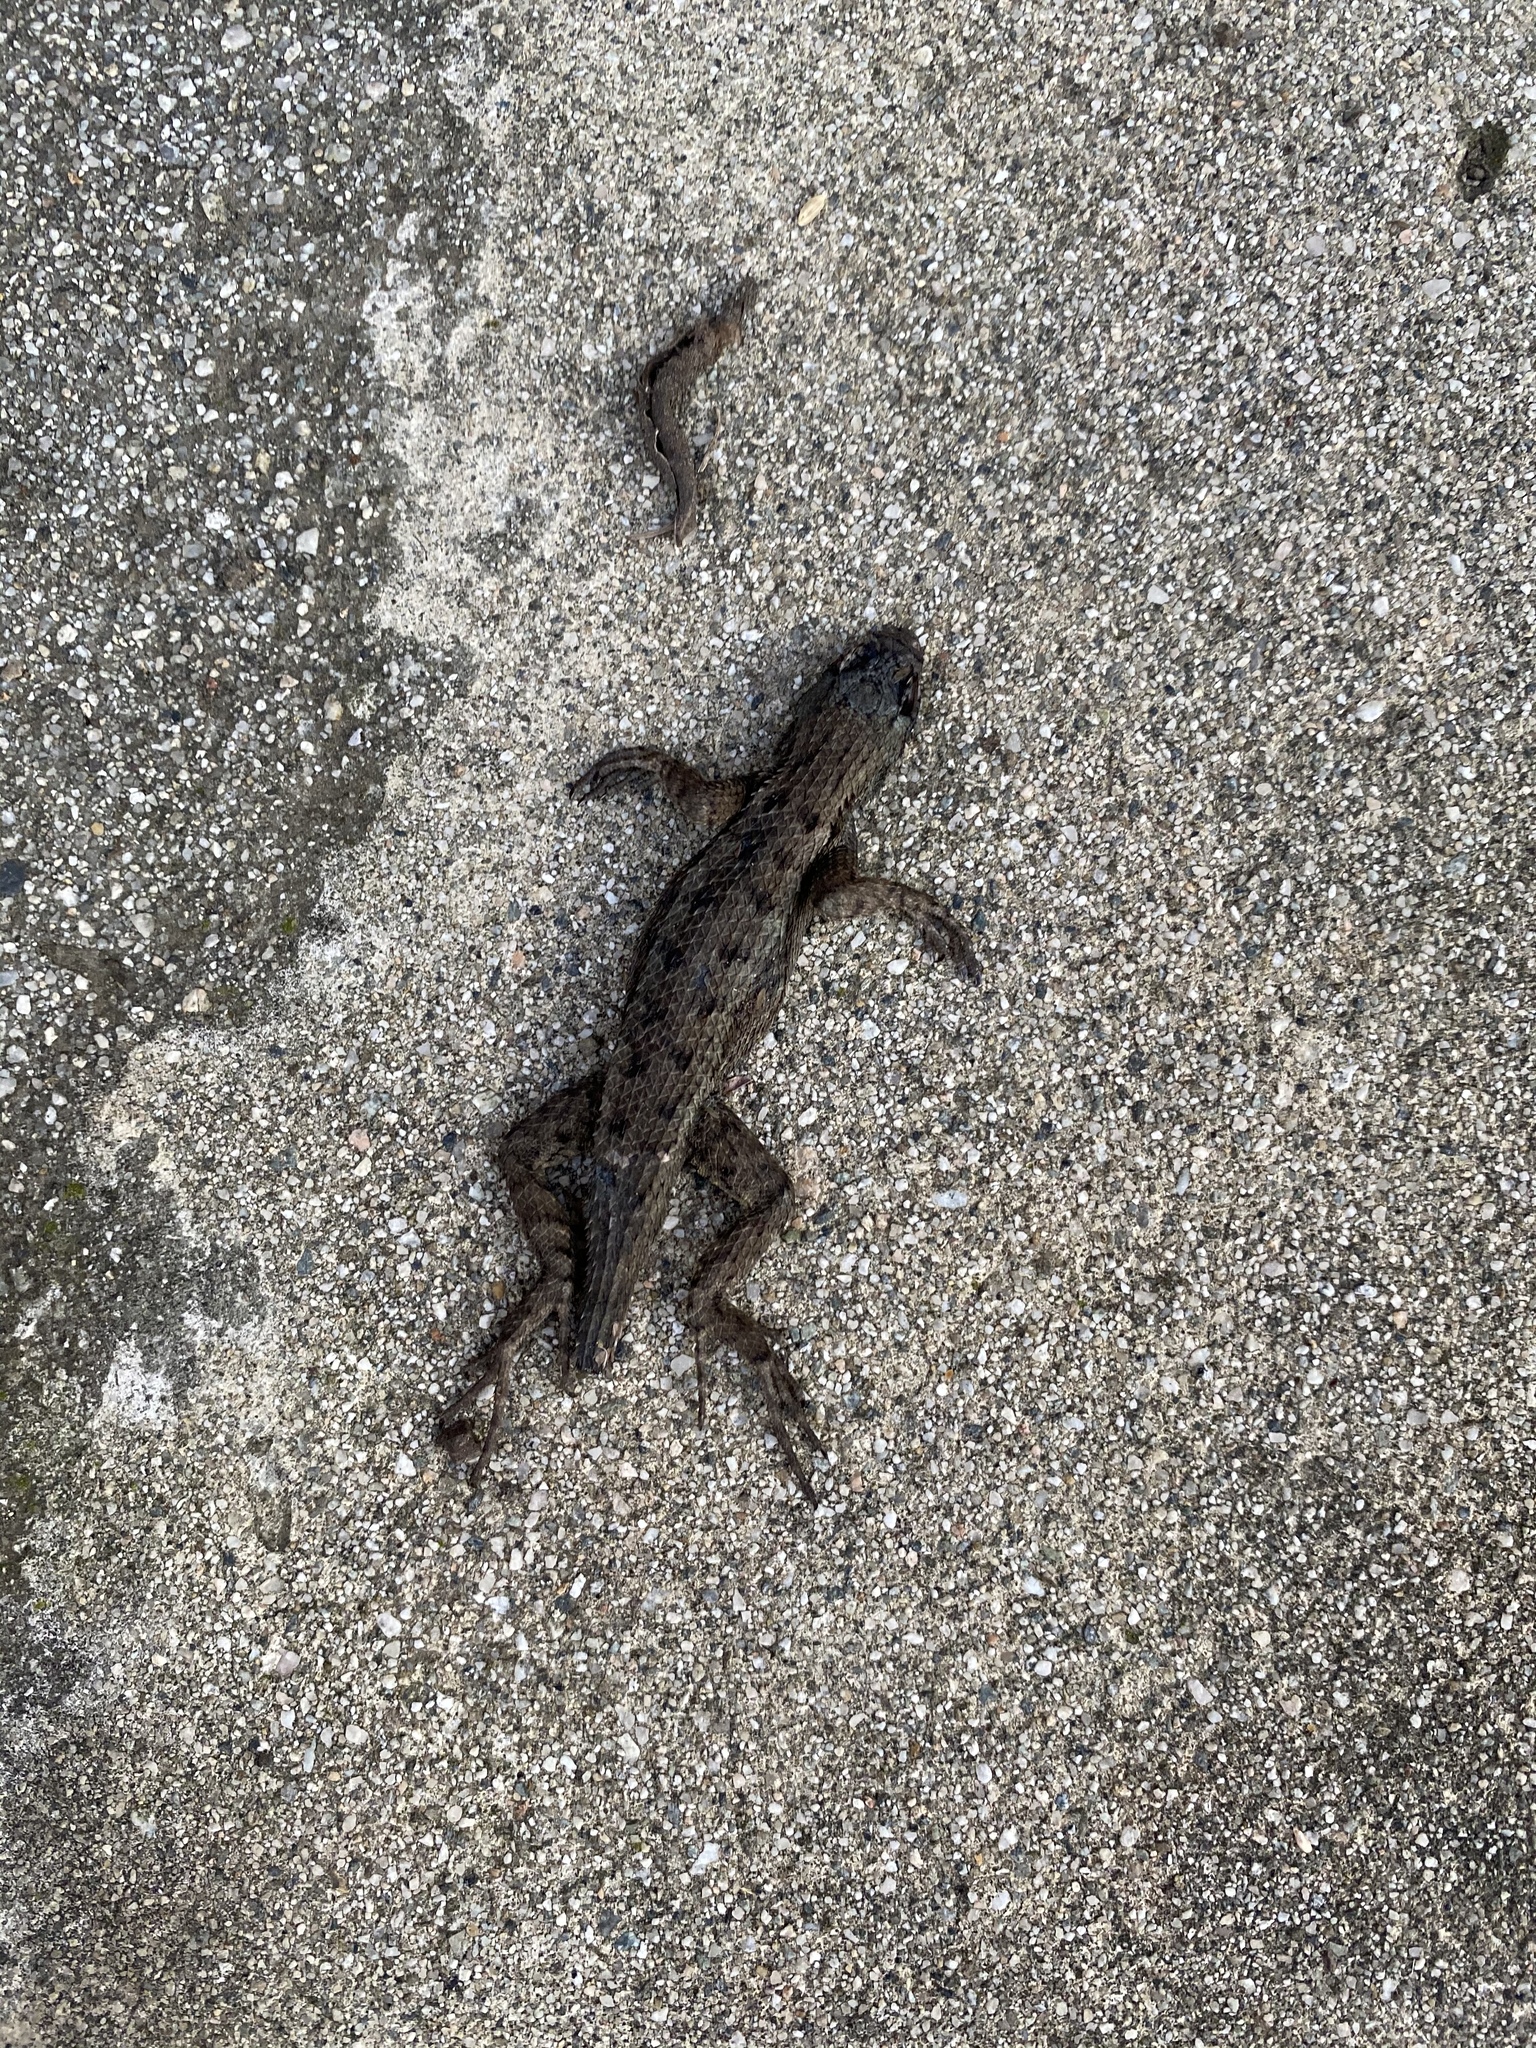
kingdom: Animalia
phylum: Chordata
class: Squamata
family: Phrynosomatidae
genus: Sceloporus
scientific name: Sceloporus occidentalis
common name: Western fence lizard
